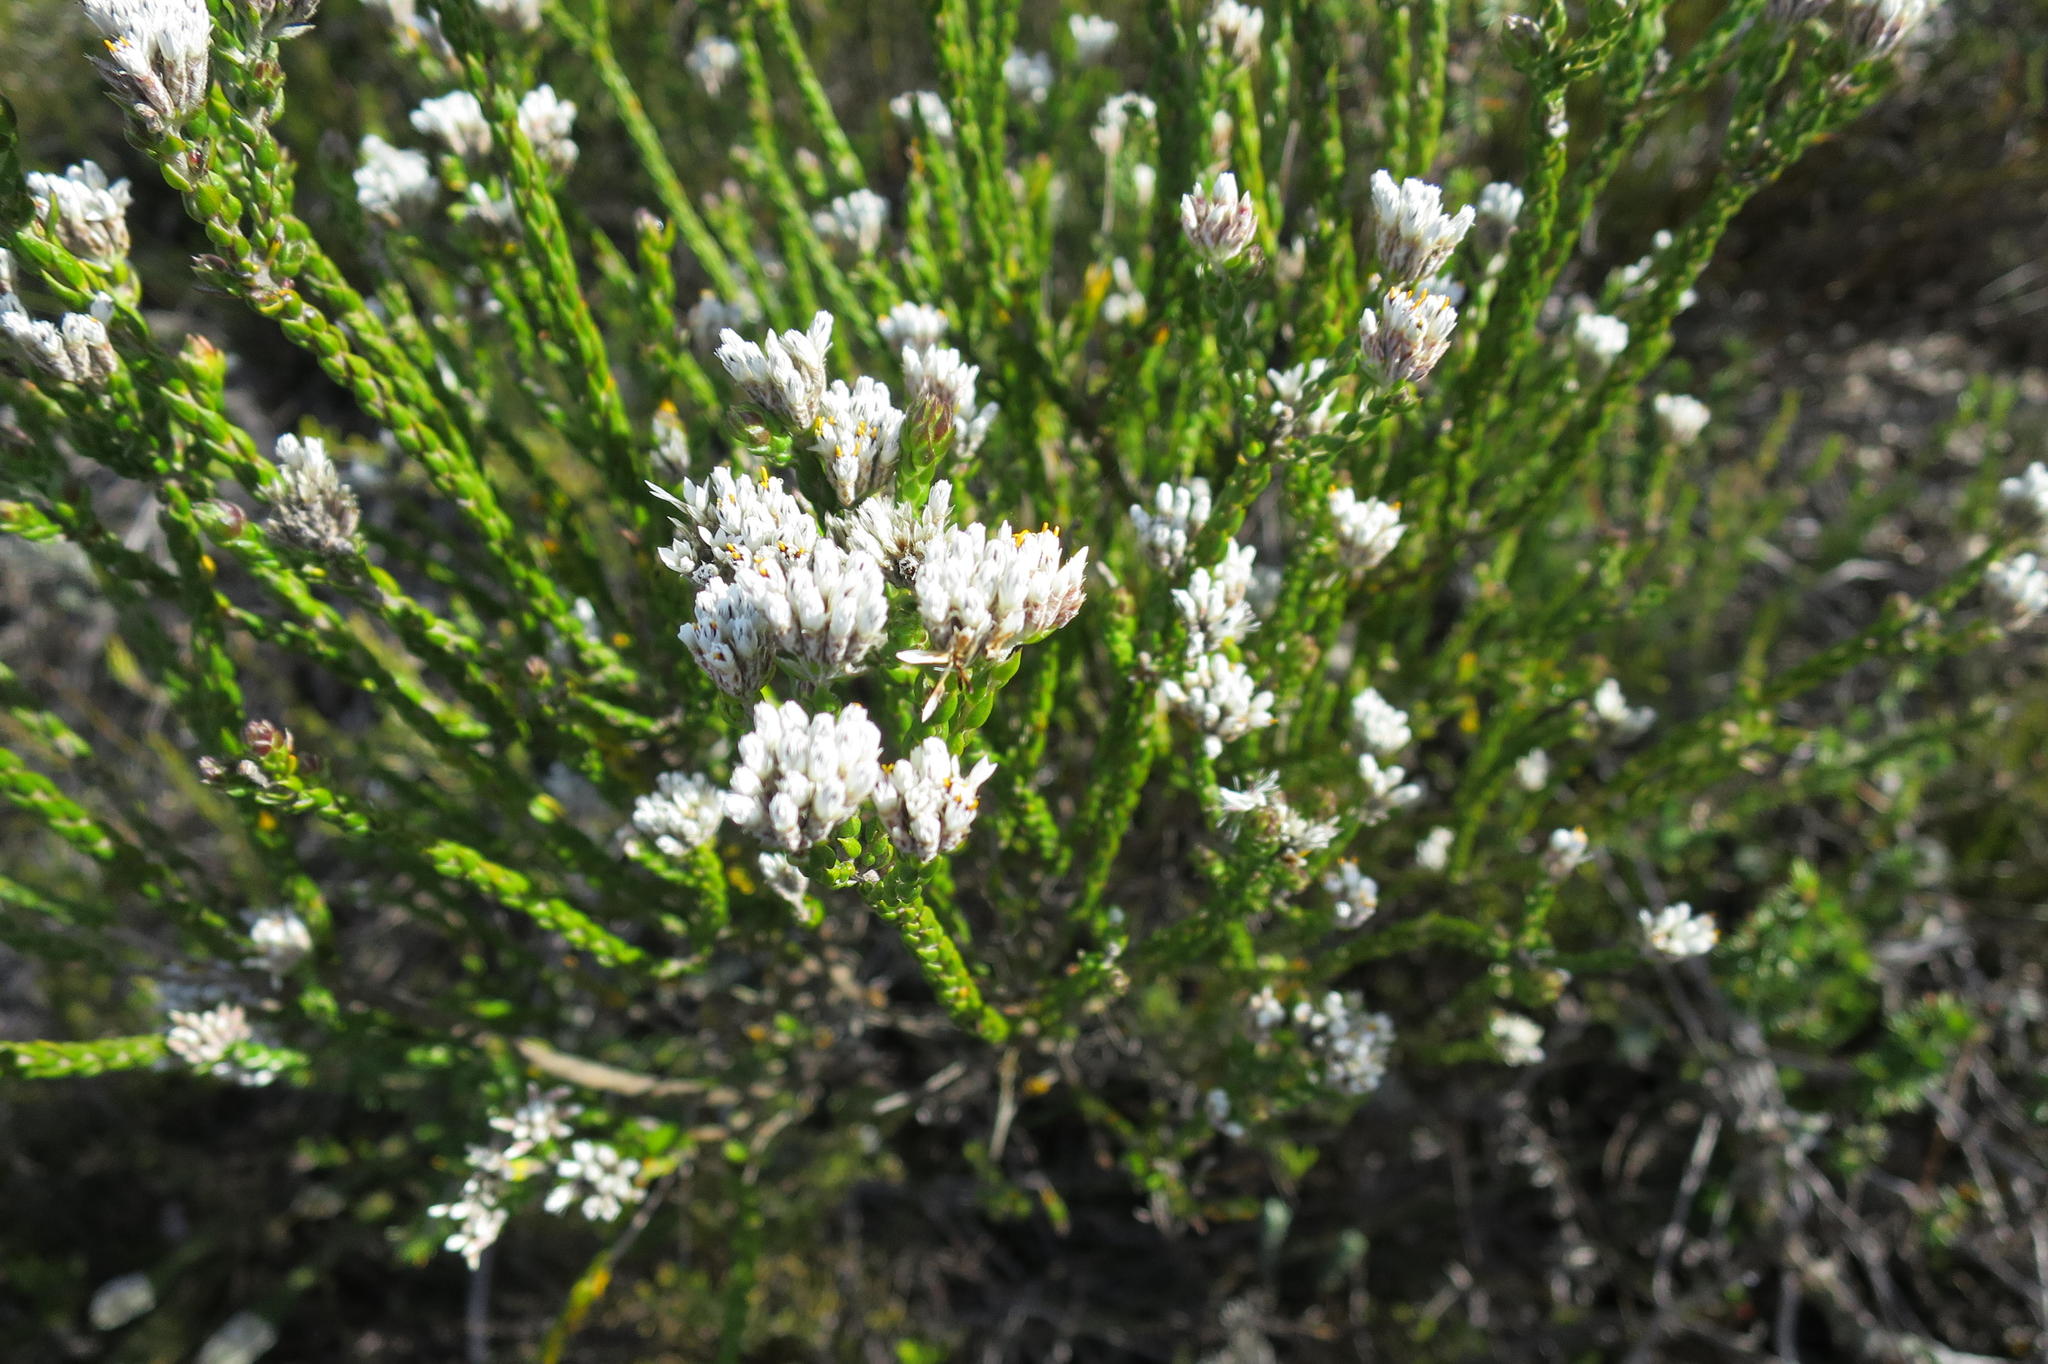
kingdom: Plantae
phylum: Tracheophyta
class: Magnoliopsida
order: Asterales
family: Asteraceae
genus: Metalasia
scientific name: Metalasia pulcherrima
